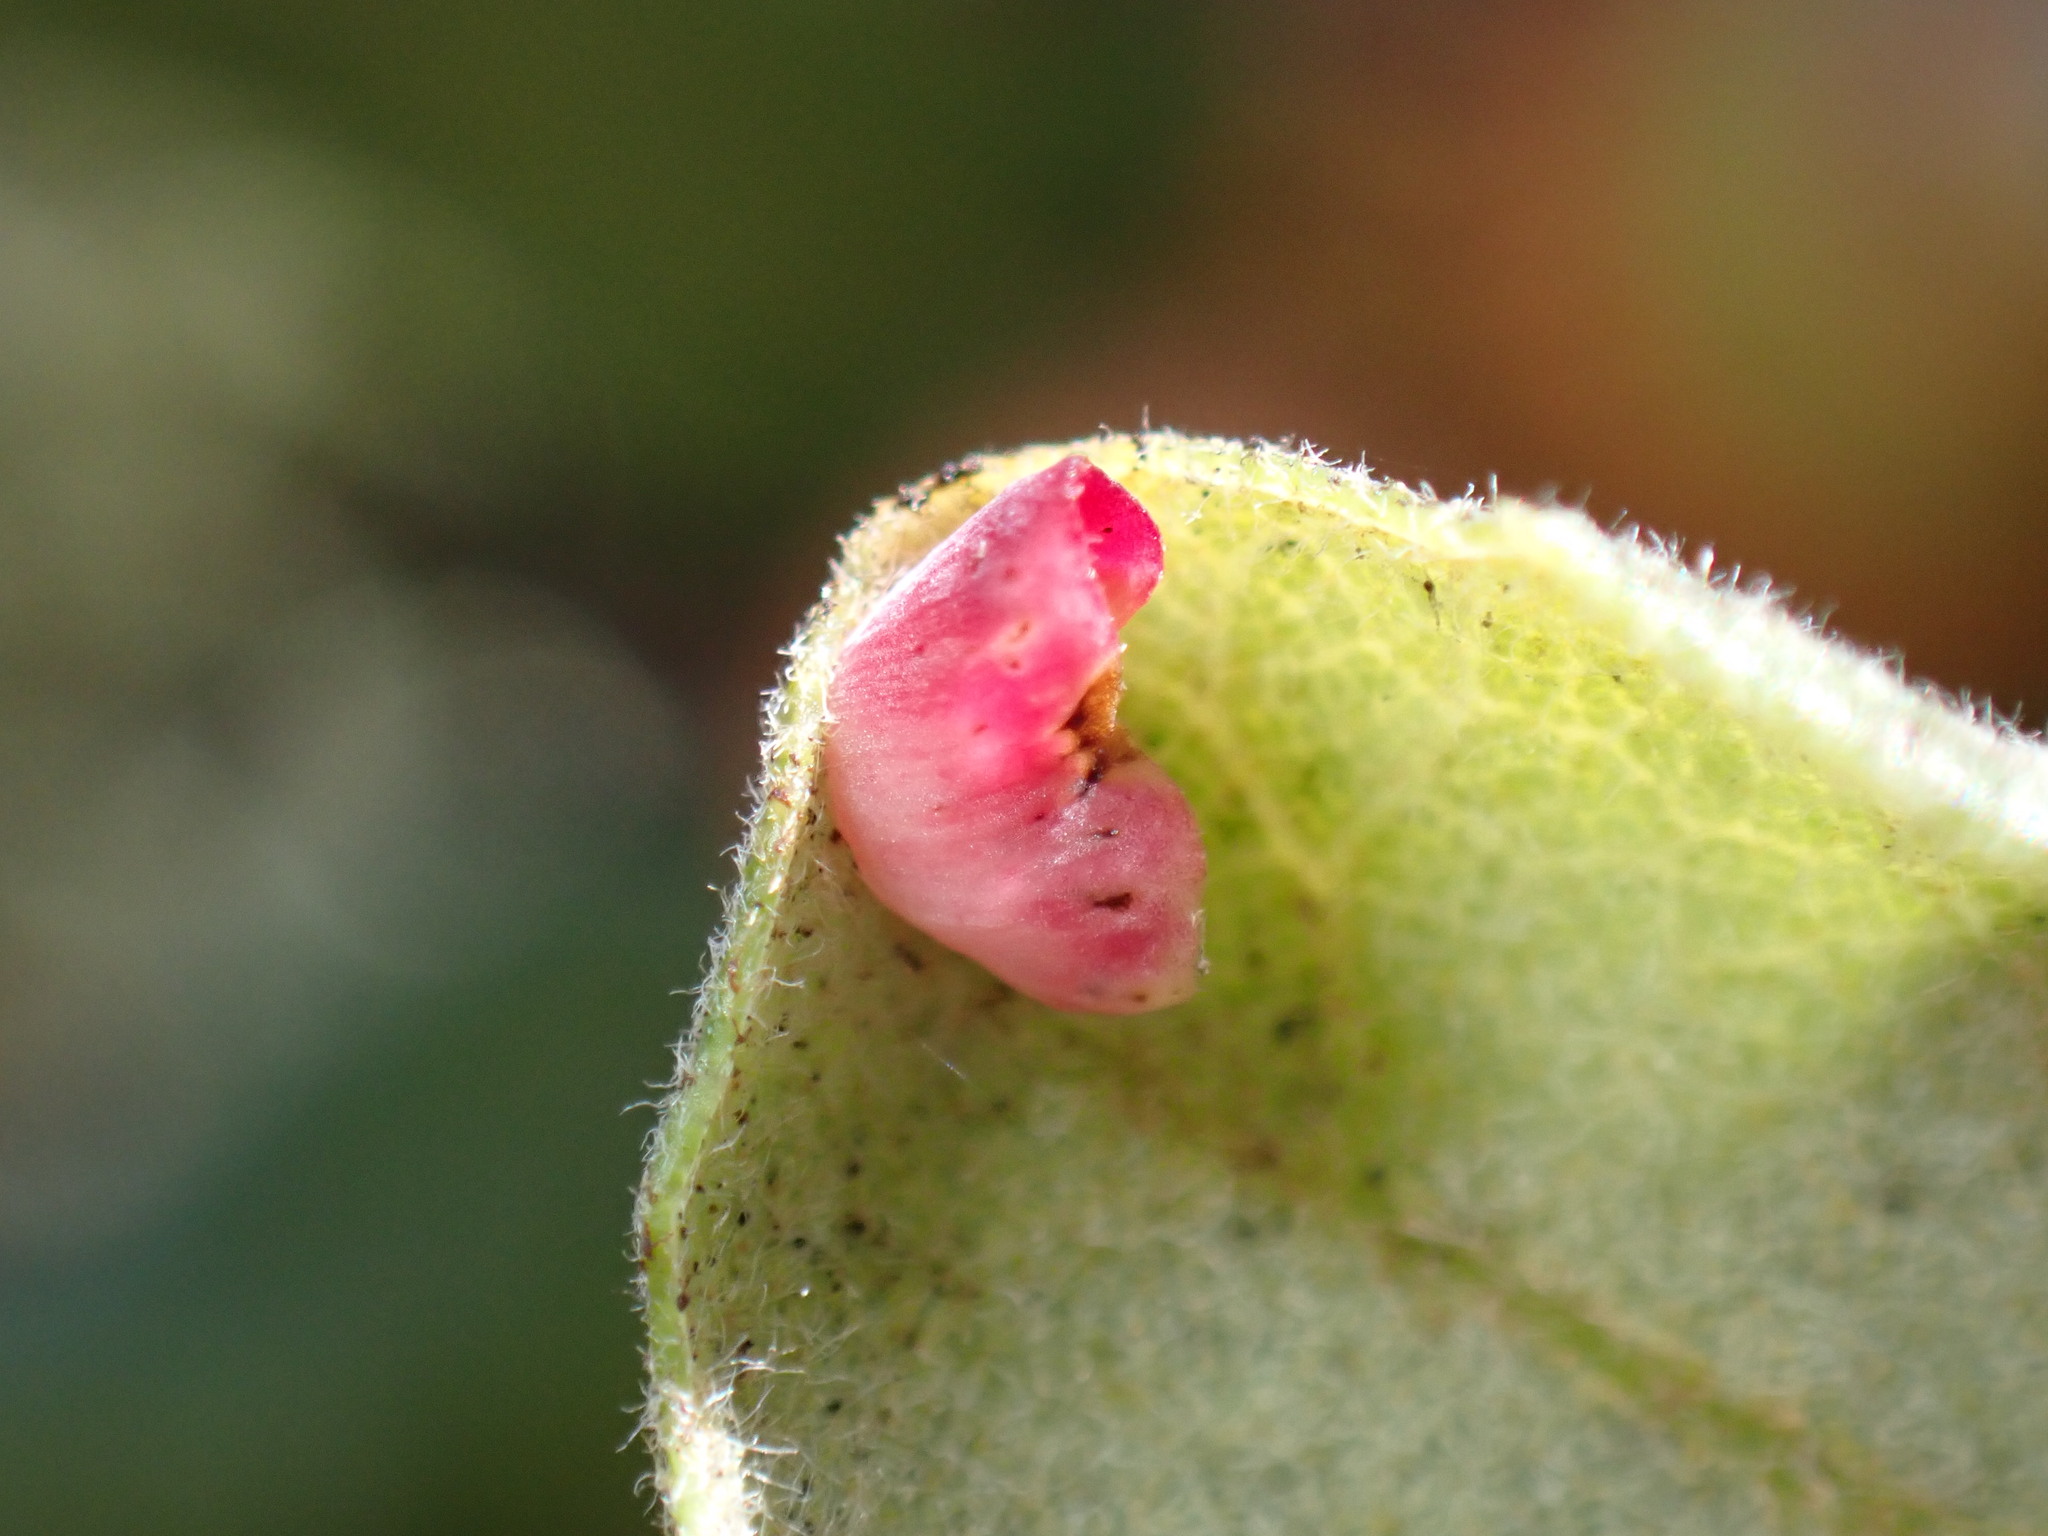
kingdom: Animalia
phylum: Arthropoda
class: Insecta
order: Hymenoptera
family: Cynipidae
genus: Andricus
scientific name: Andricus
